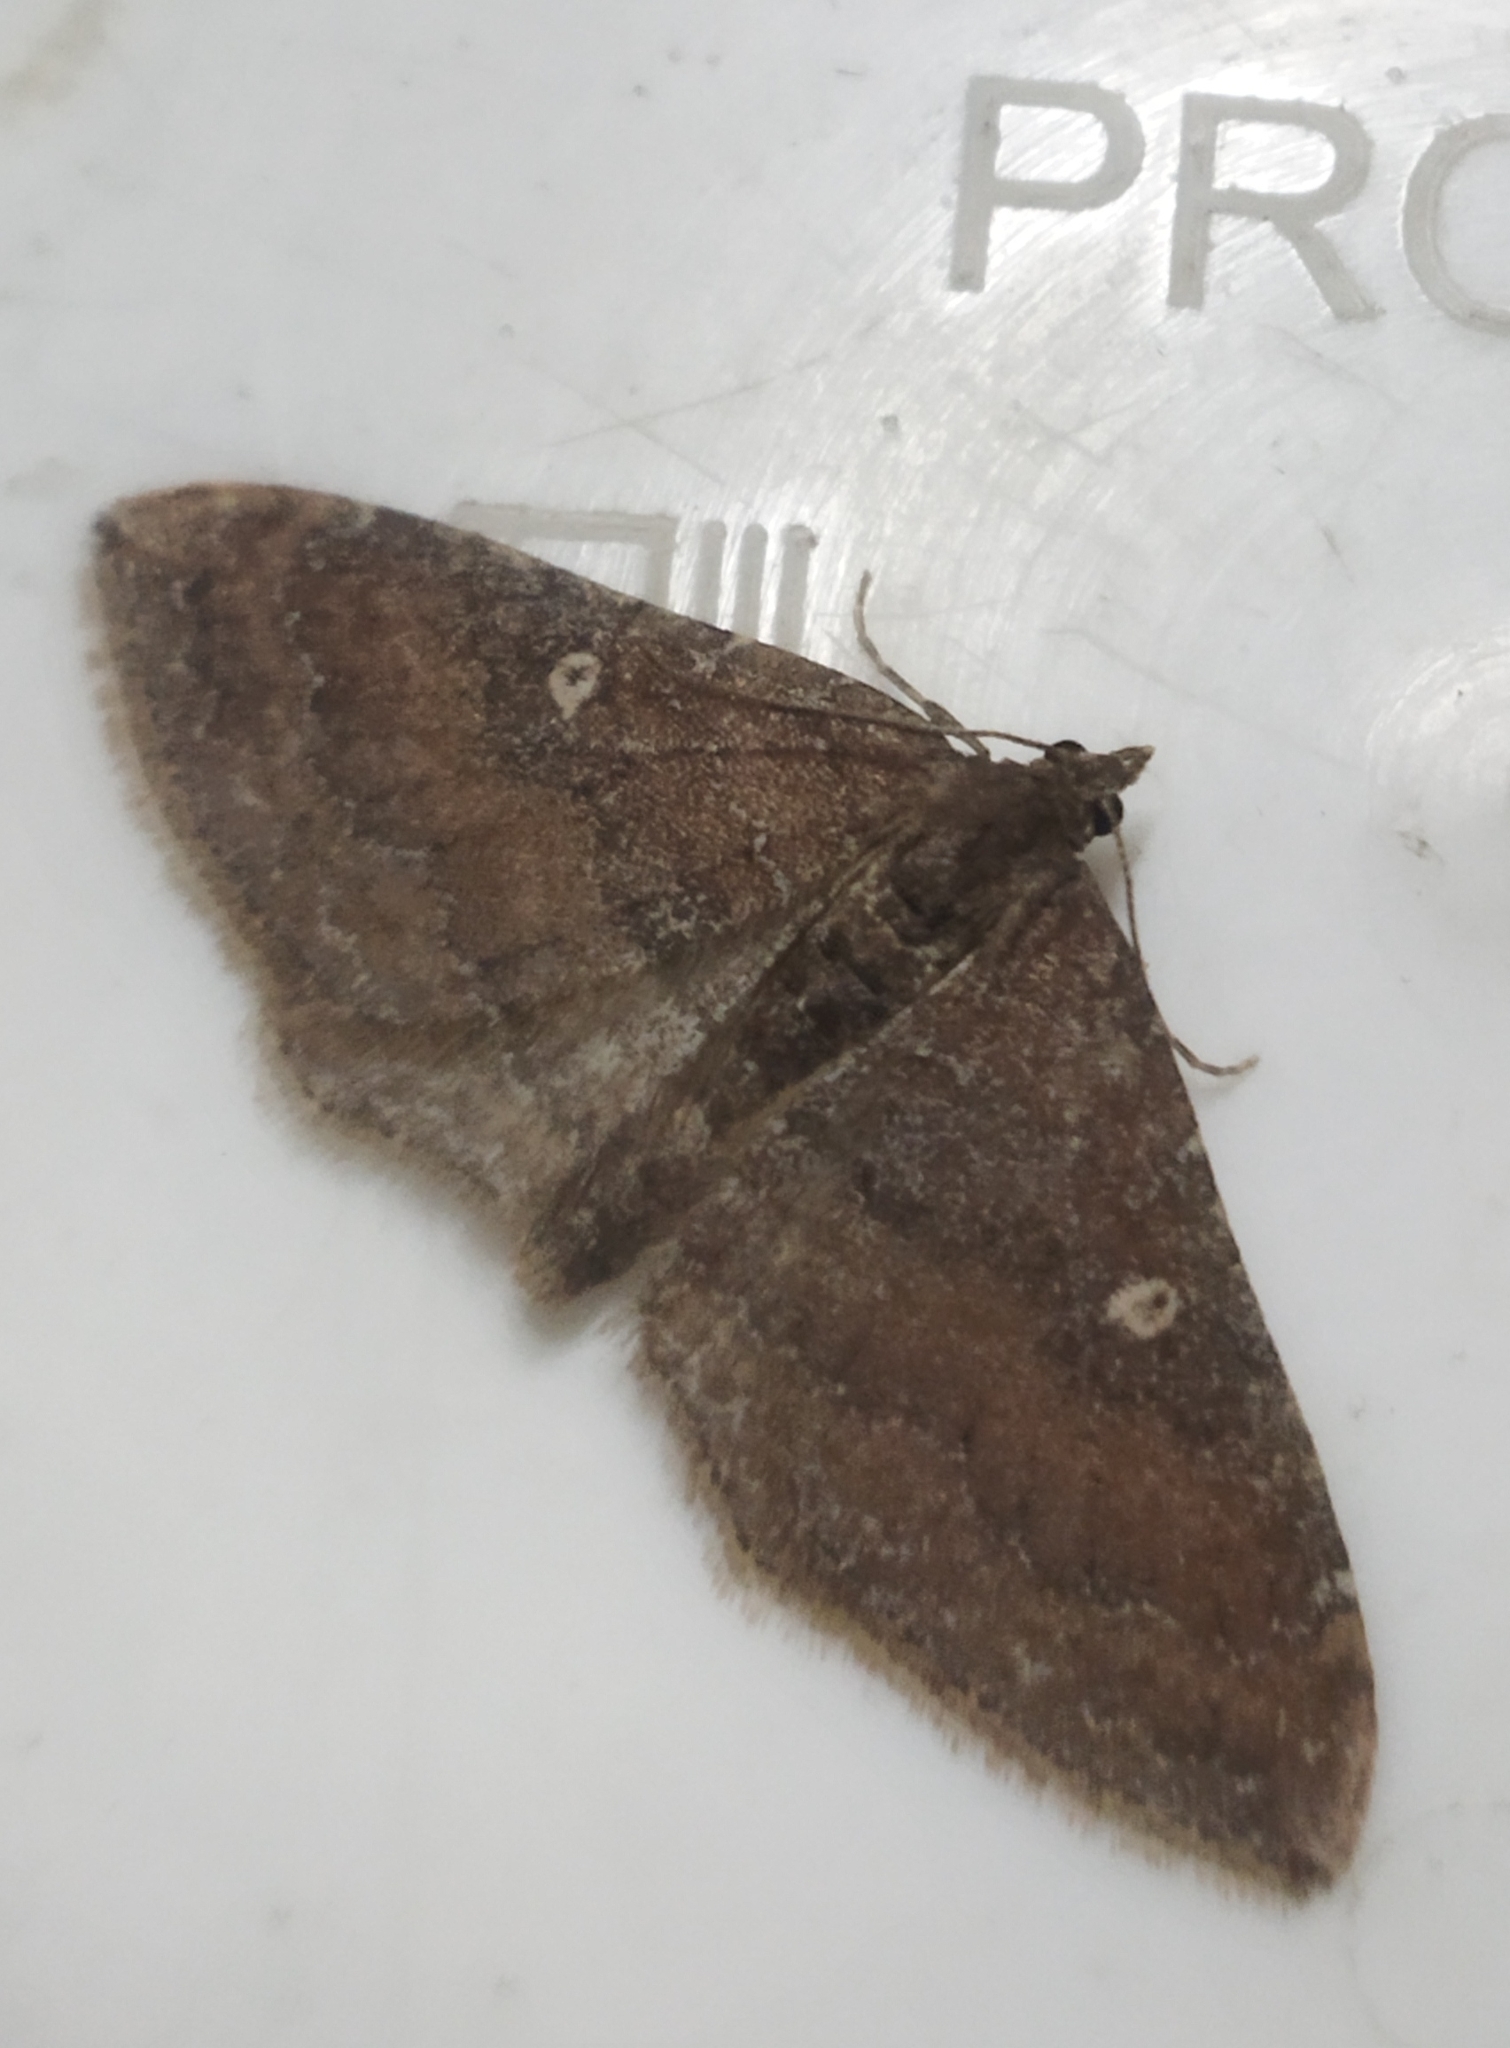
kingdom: Animalia
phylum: Arthropoda
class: Insecta
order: Lepidoptera
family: Geometridae
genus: Orthonama
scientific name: Orthonama obstipata
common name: The gem
